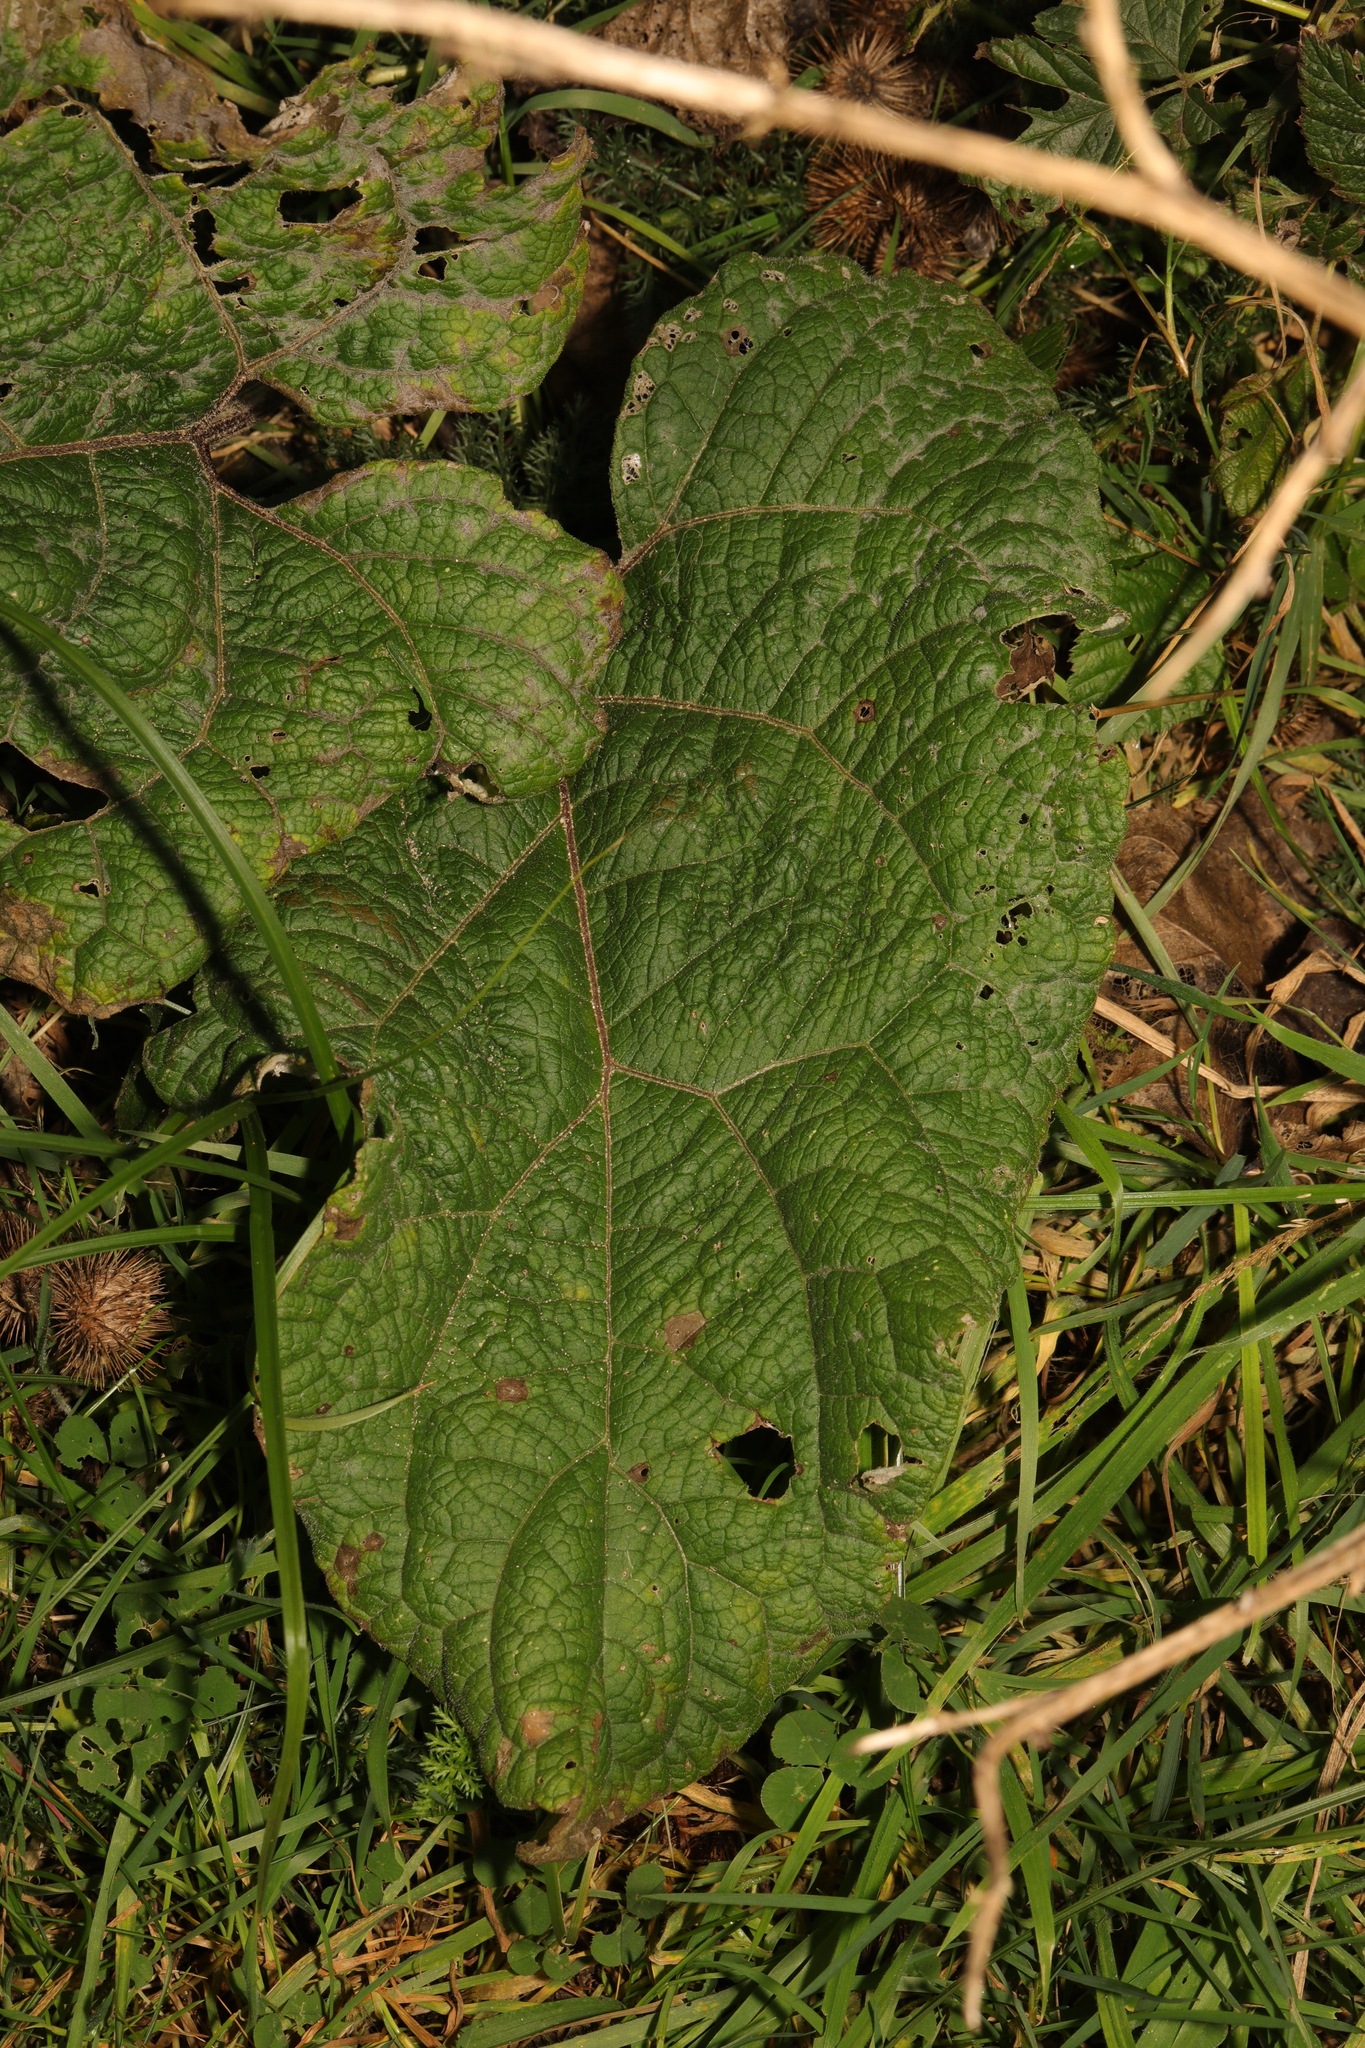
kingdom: Plantae
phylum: Tracheophyta
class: Magnoliopsida
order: Asterales
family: Asteraceae
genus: Arctium
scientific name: Arctium minus
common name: Lesser burdock
